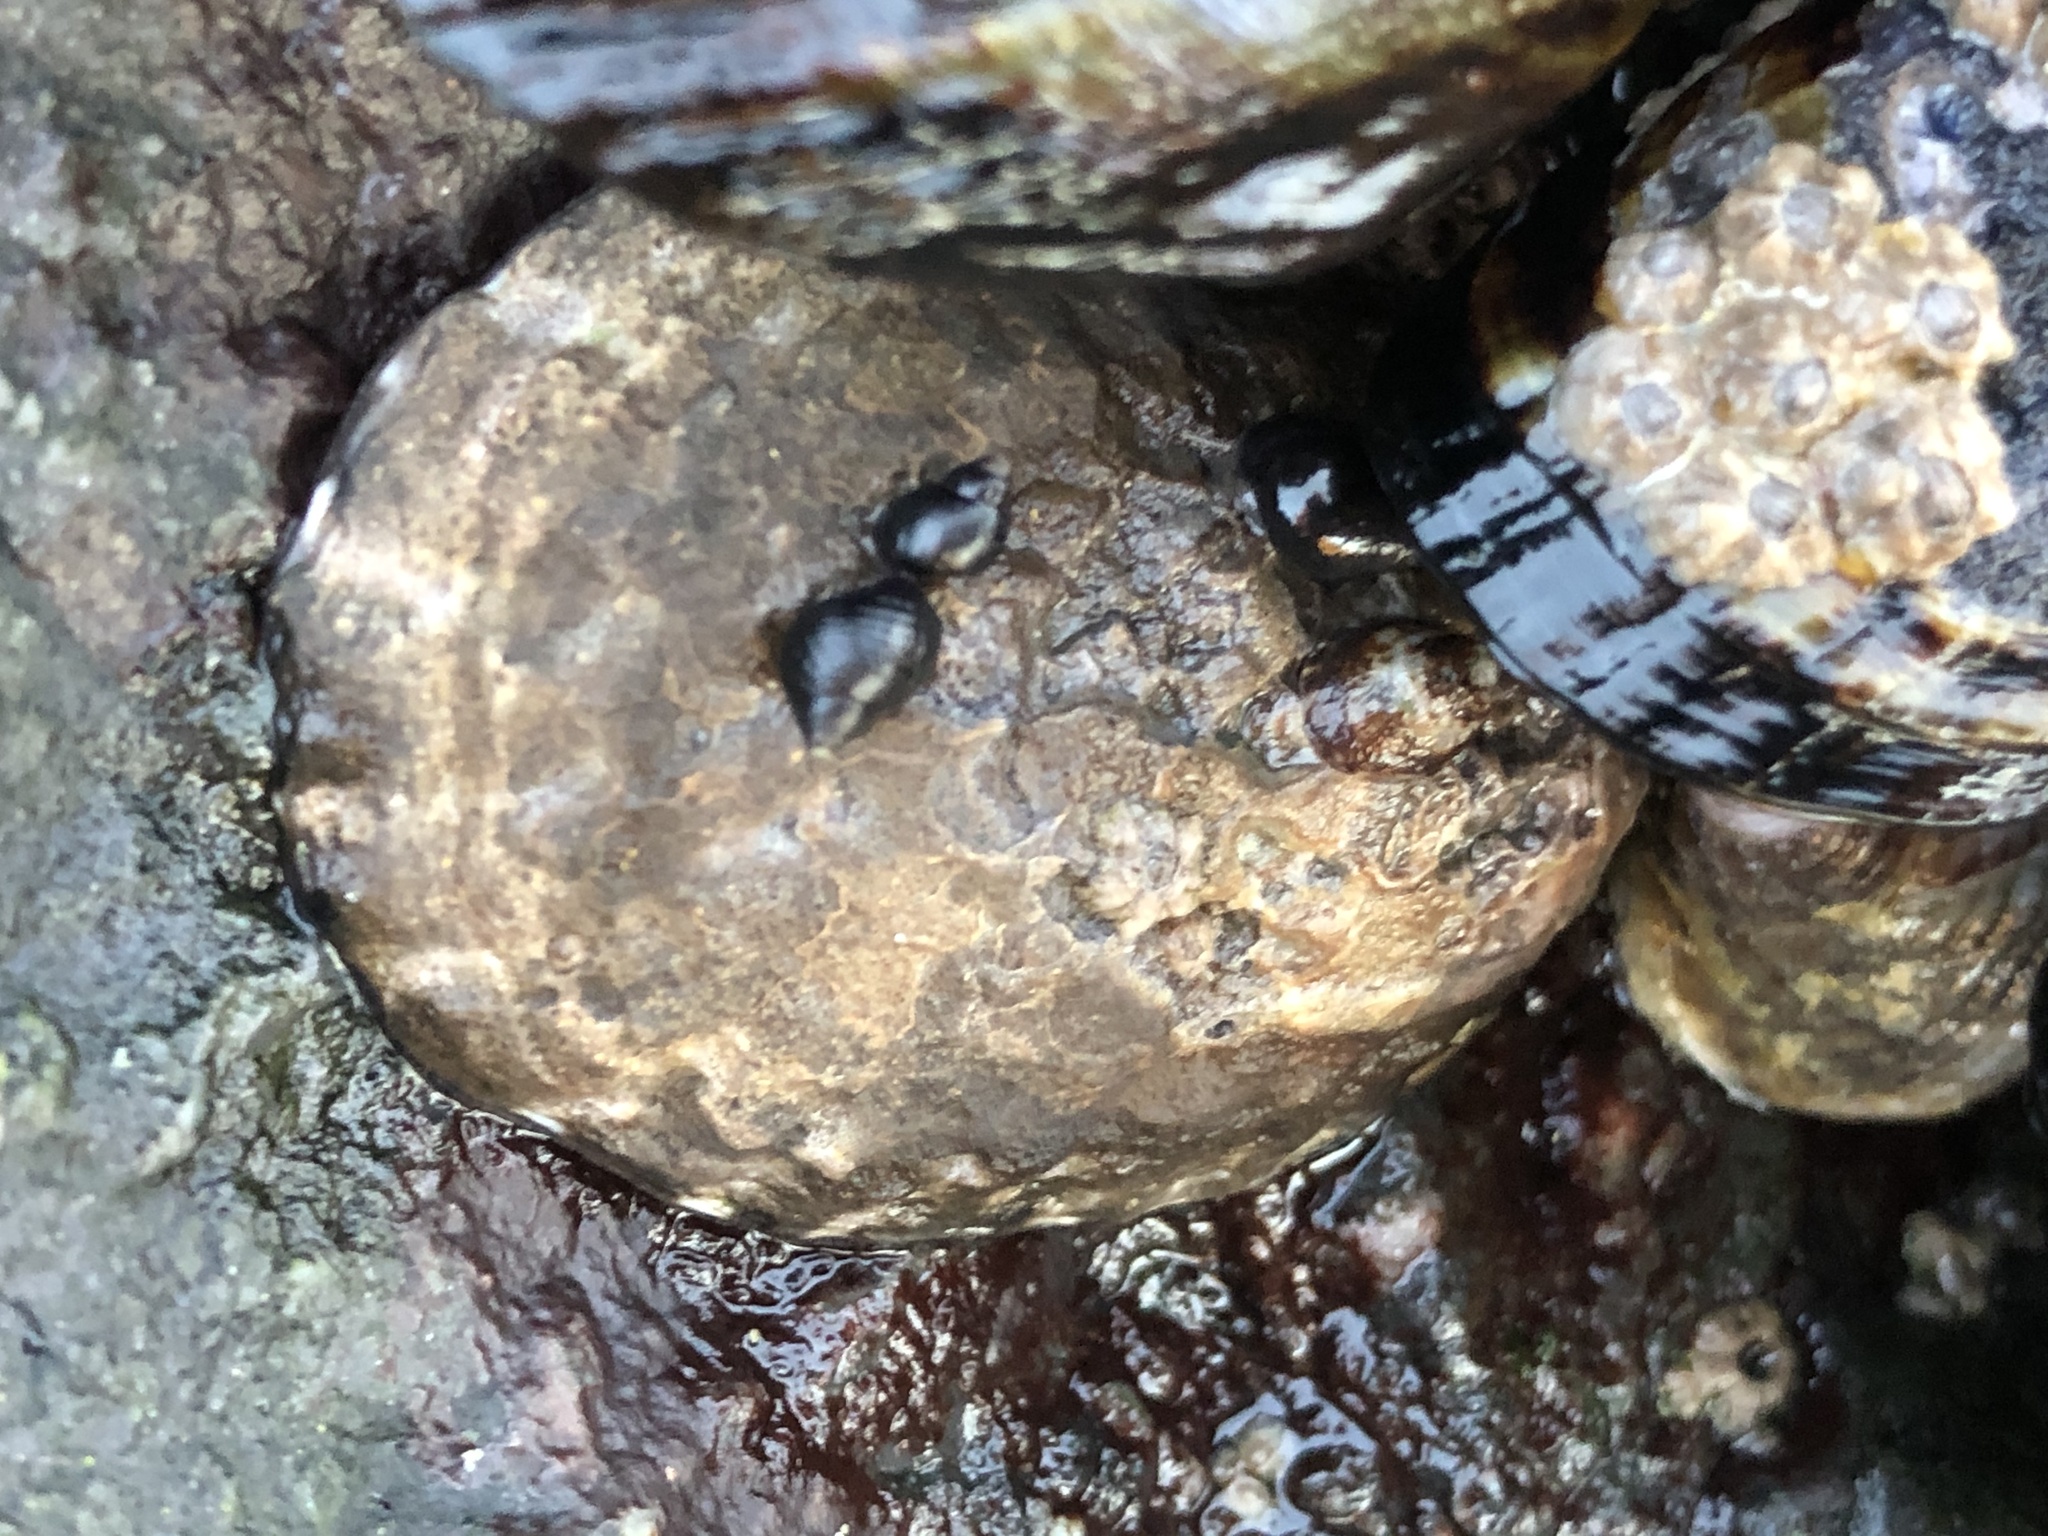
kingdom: Animalia
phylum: Mollusca
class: Gastropoda
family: Lottiidae
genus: Lottia
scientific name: Lottia gigantea
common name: Owl limpet
